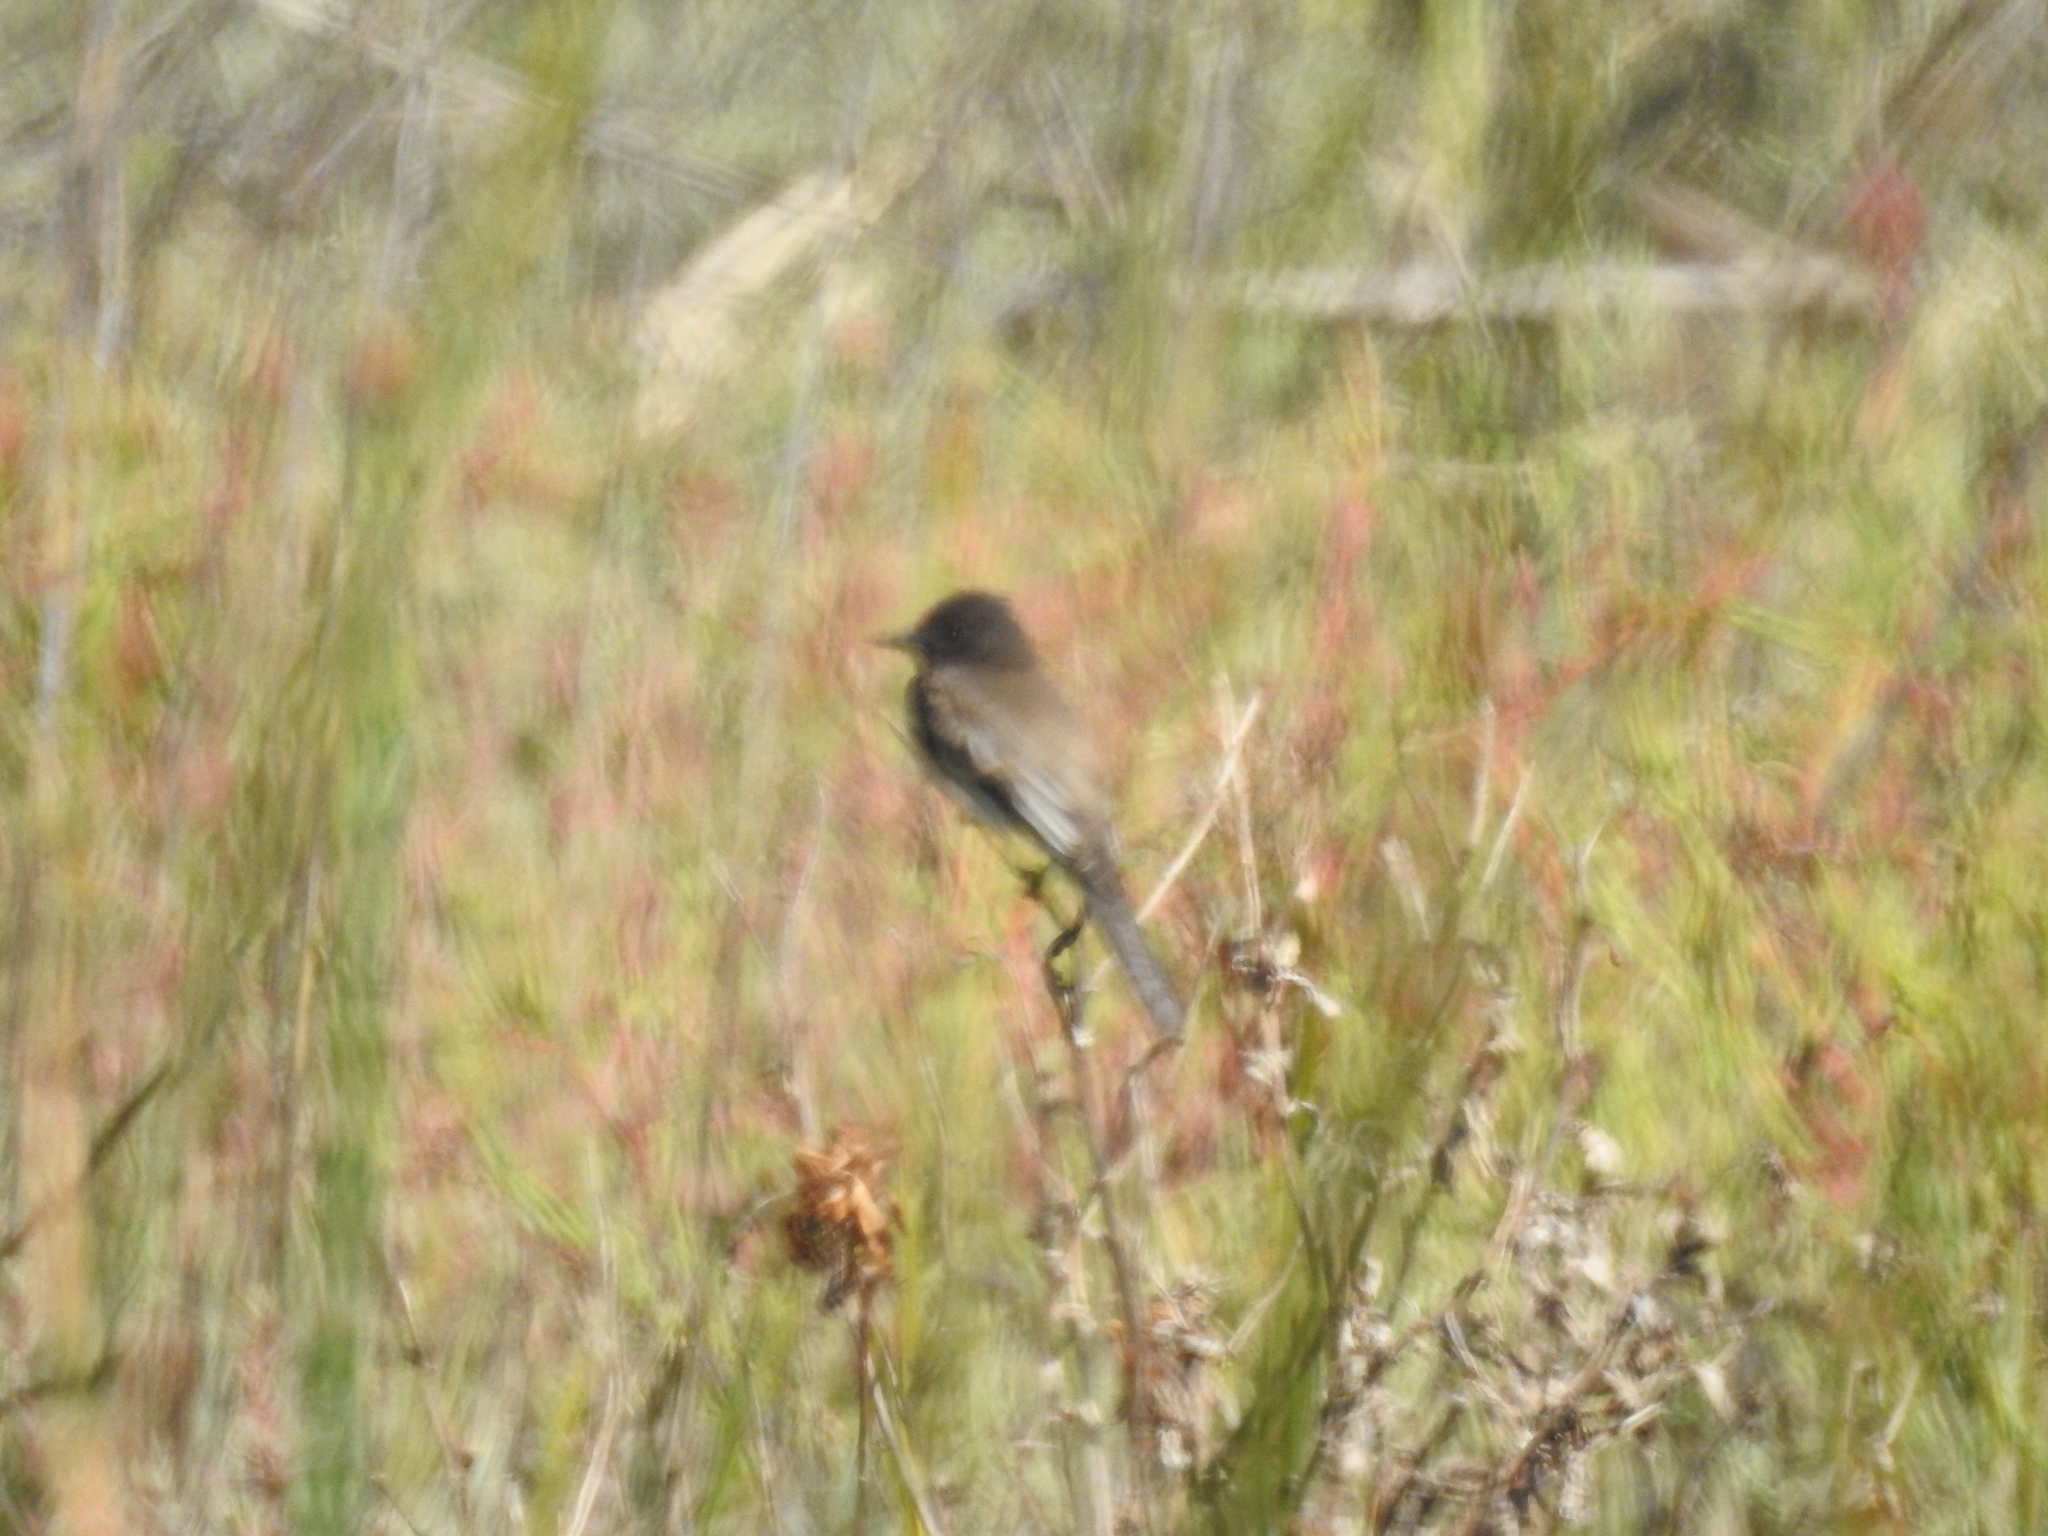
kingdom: Animalia
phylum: Chordata
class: Aves
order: Passeriformes
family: Tyrannidae
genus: Sayornis
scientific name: Sayornis nigricans
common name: Black phoebe
